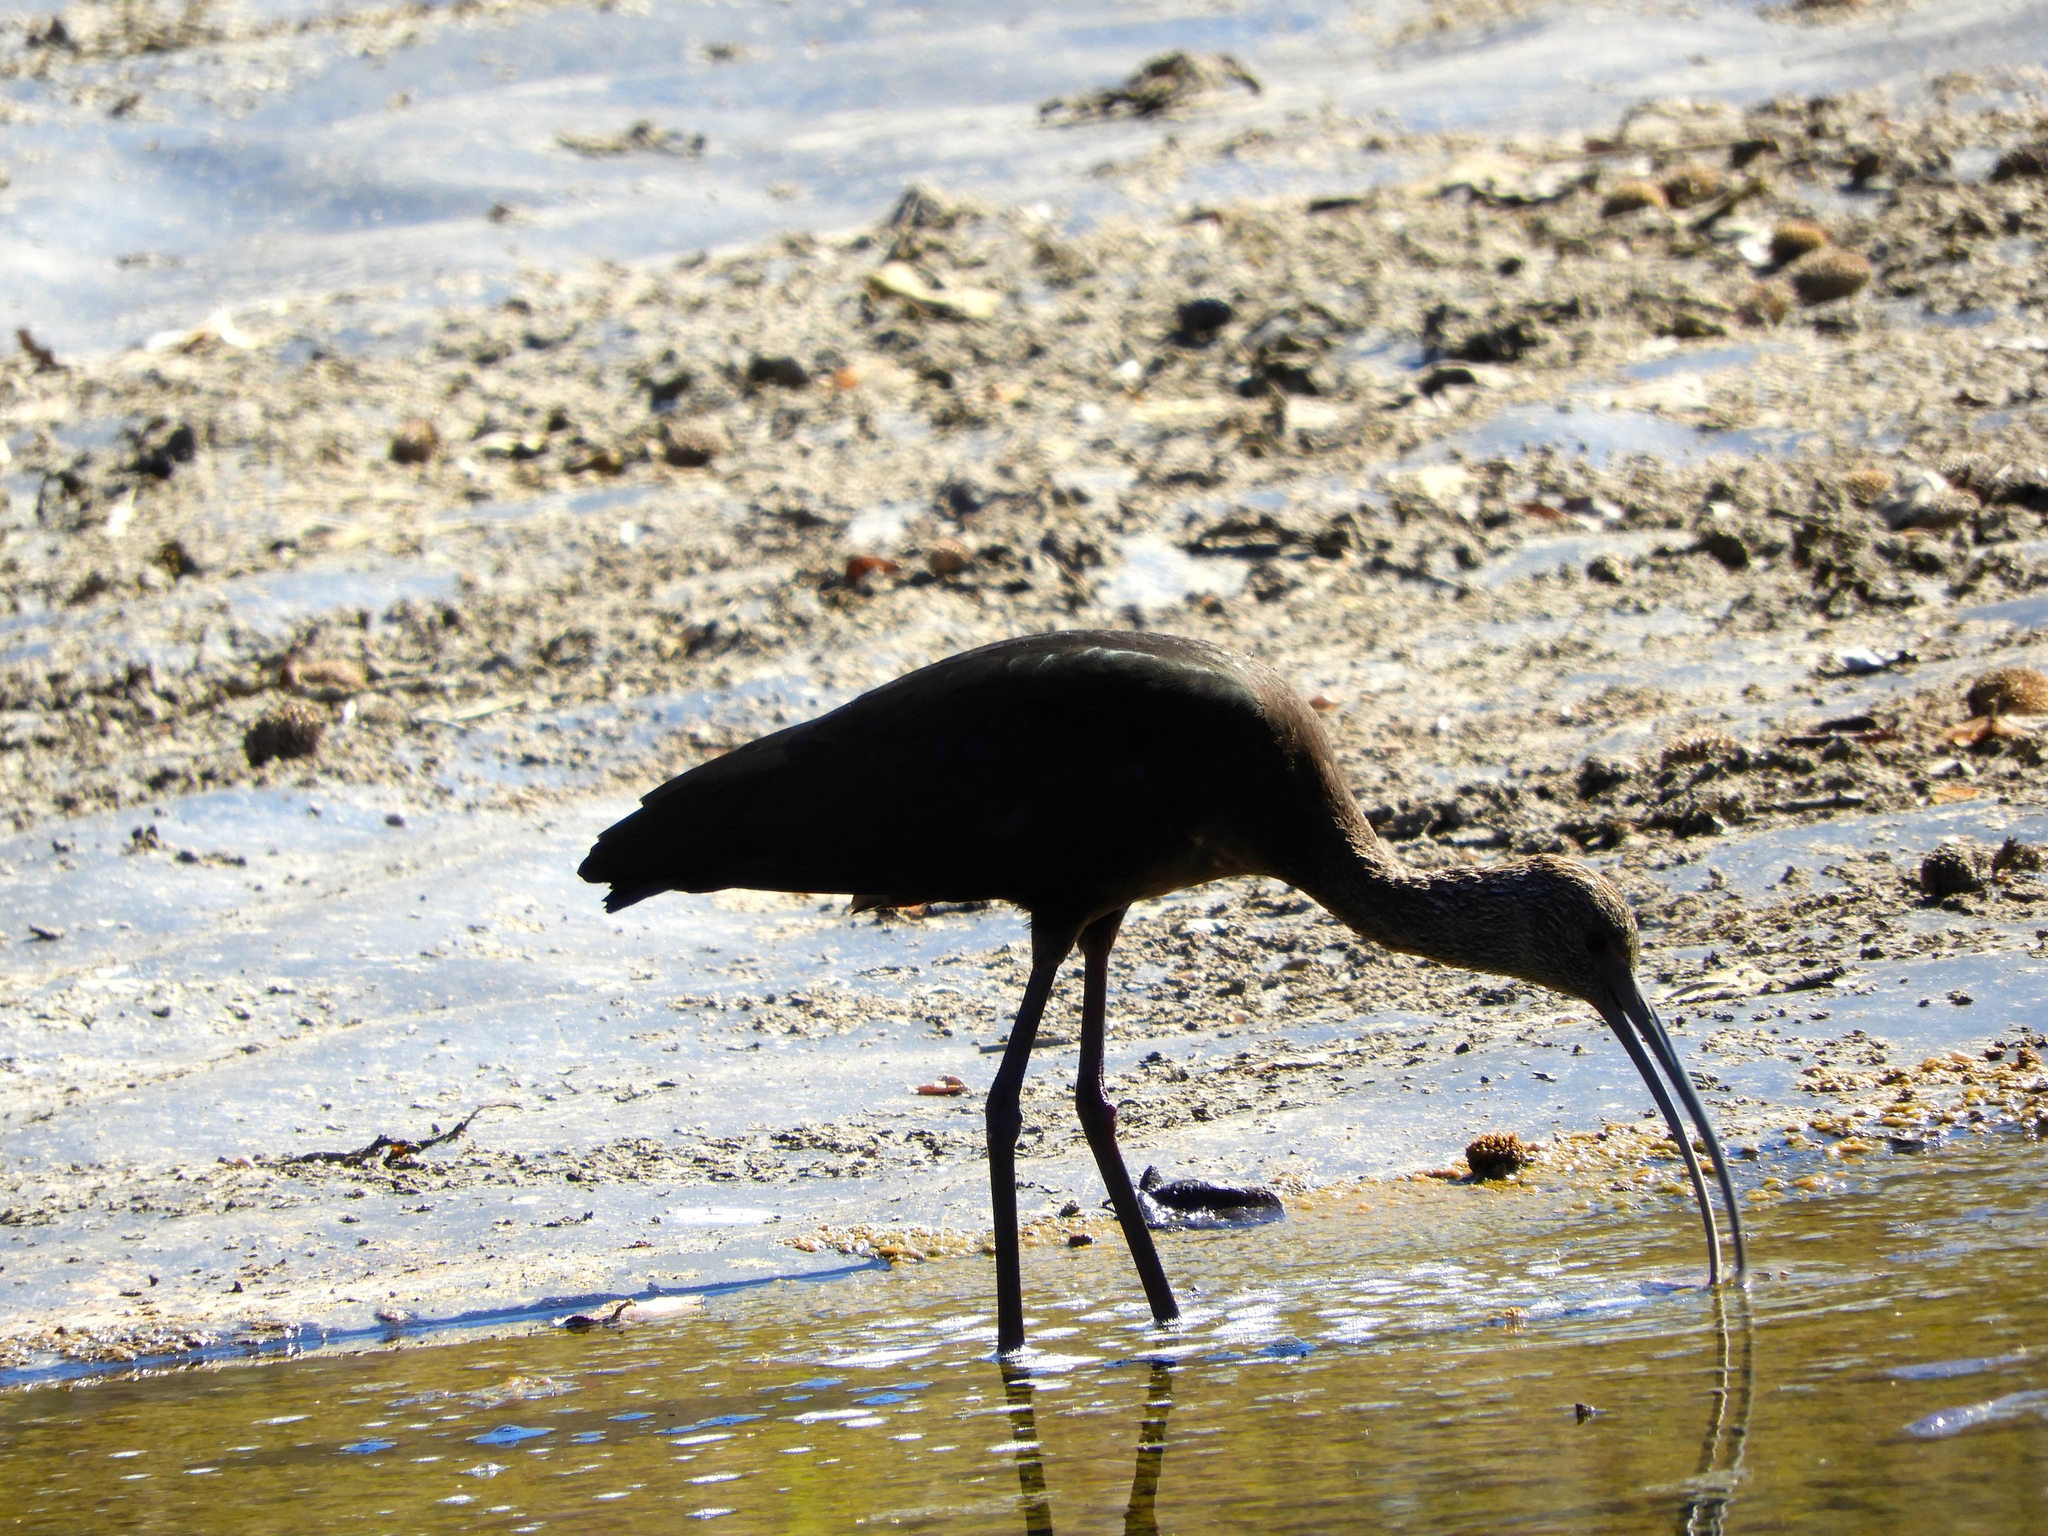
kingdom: Animalia
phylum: Chordata
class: Aves
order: Pelecaniformes
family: Threskiornithidae
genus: Plegadis
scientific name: Plegadis chihi
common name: White-faced ibis
